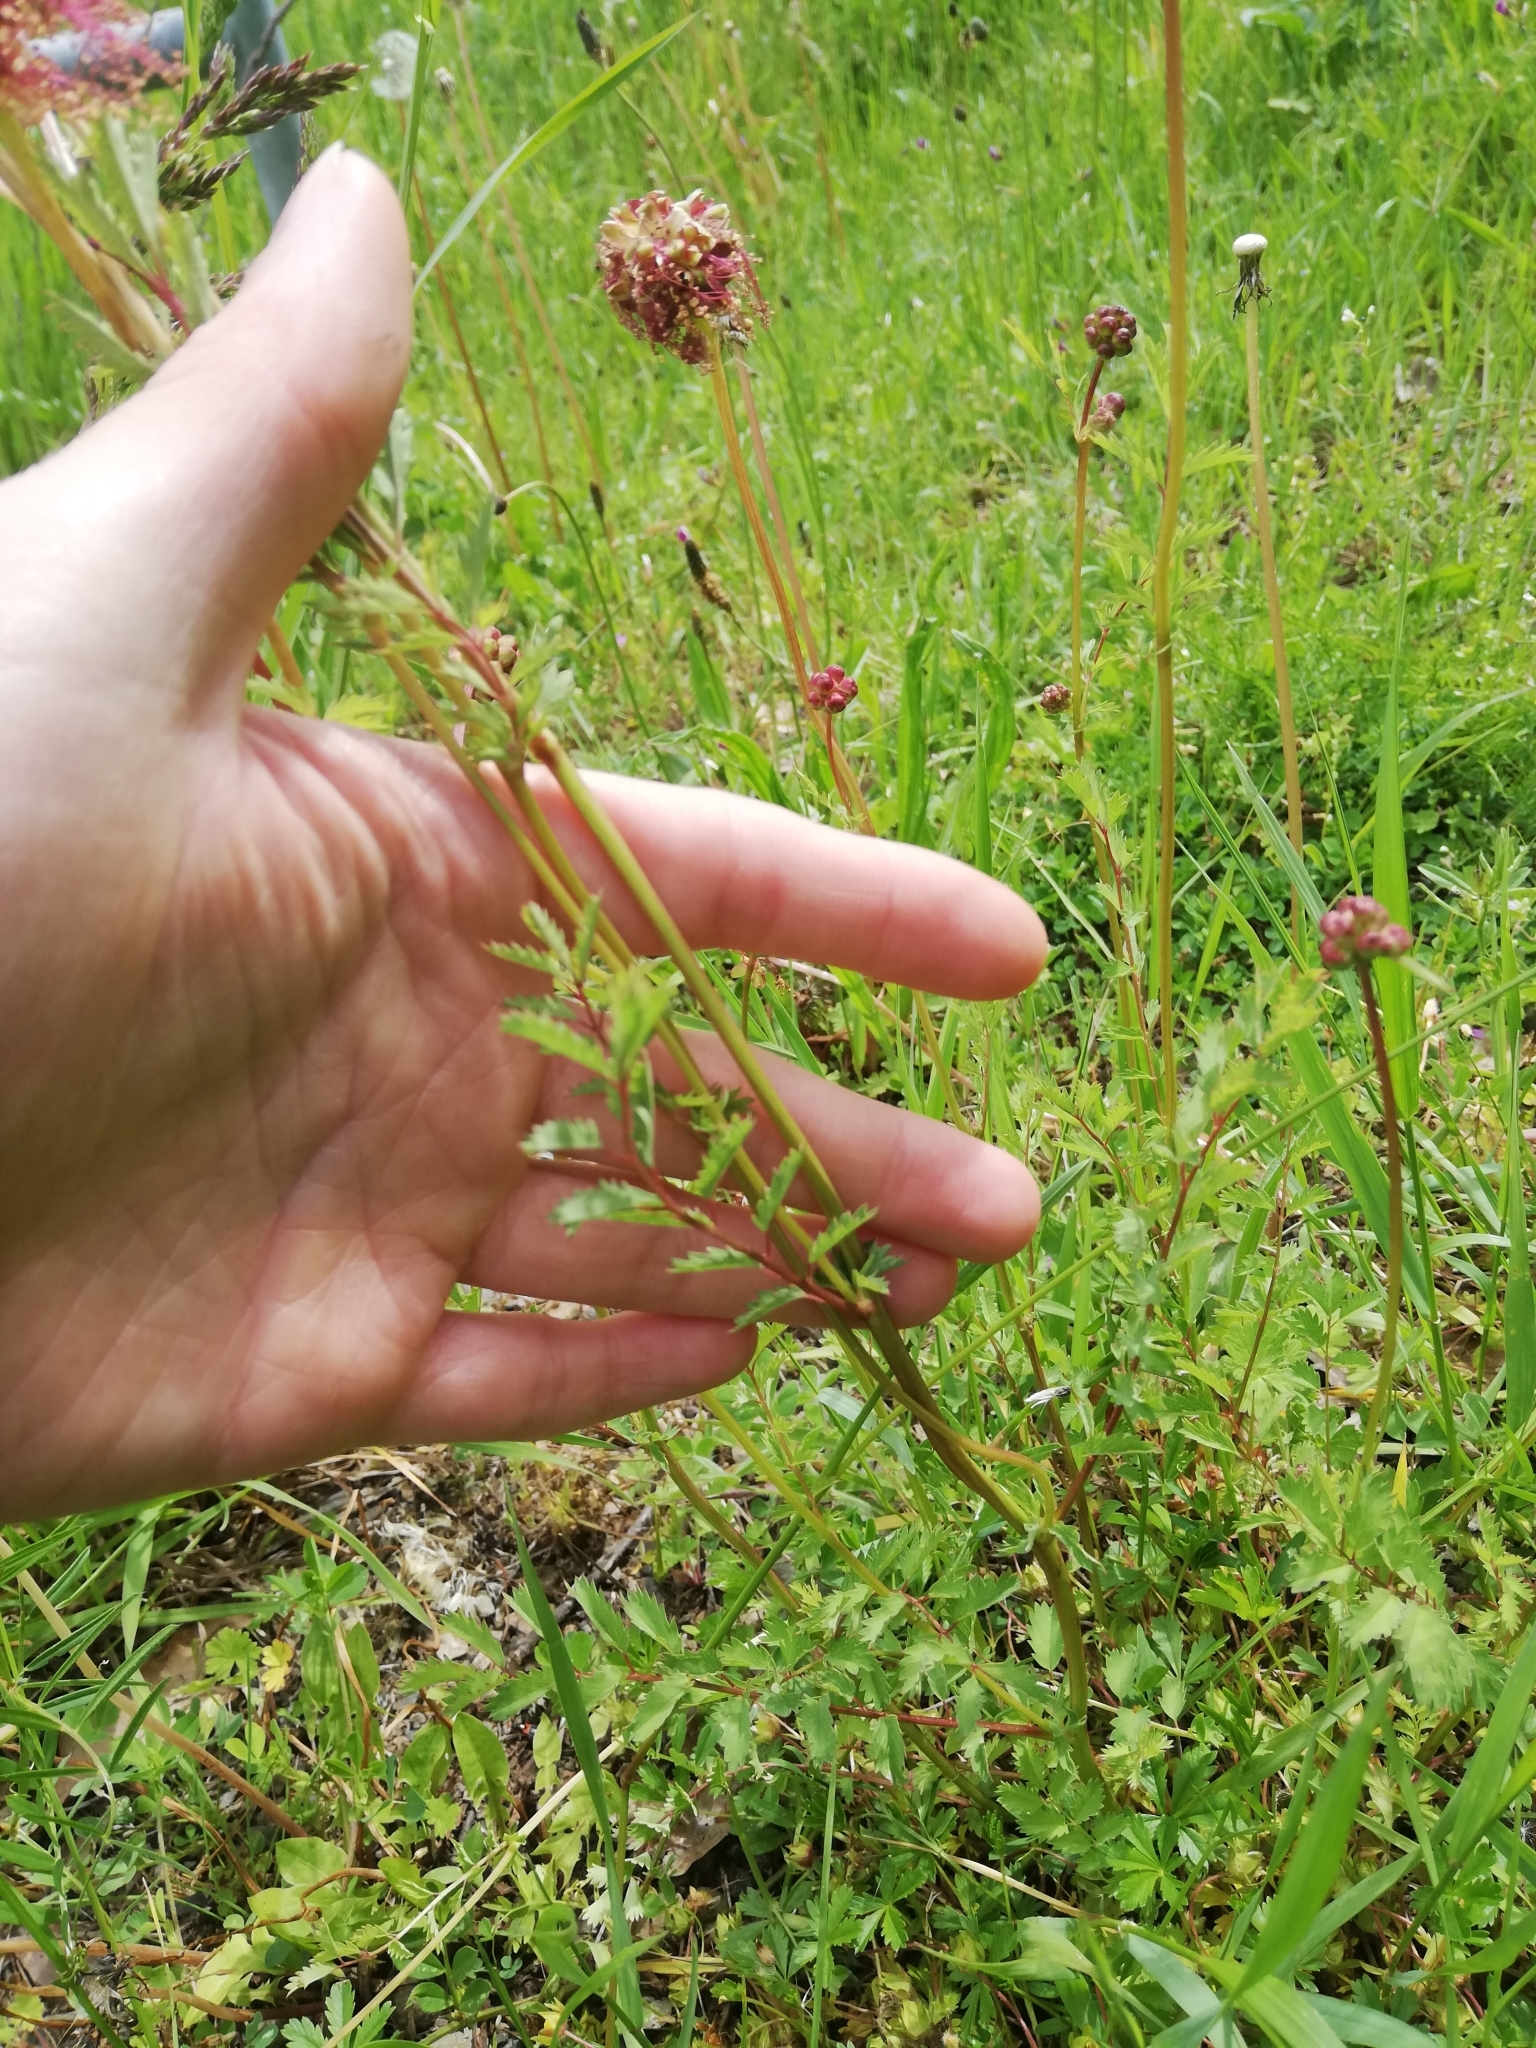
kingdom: Plantae
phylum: Tracheophyta
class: Magnoliopsida
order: Rosales
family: Rosaceae
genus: Poterium
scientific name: Poterium sanguisorba
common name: Salad burnet
